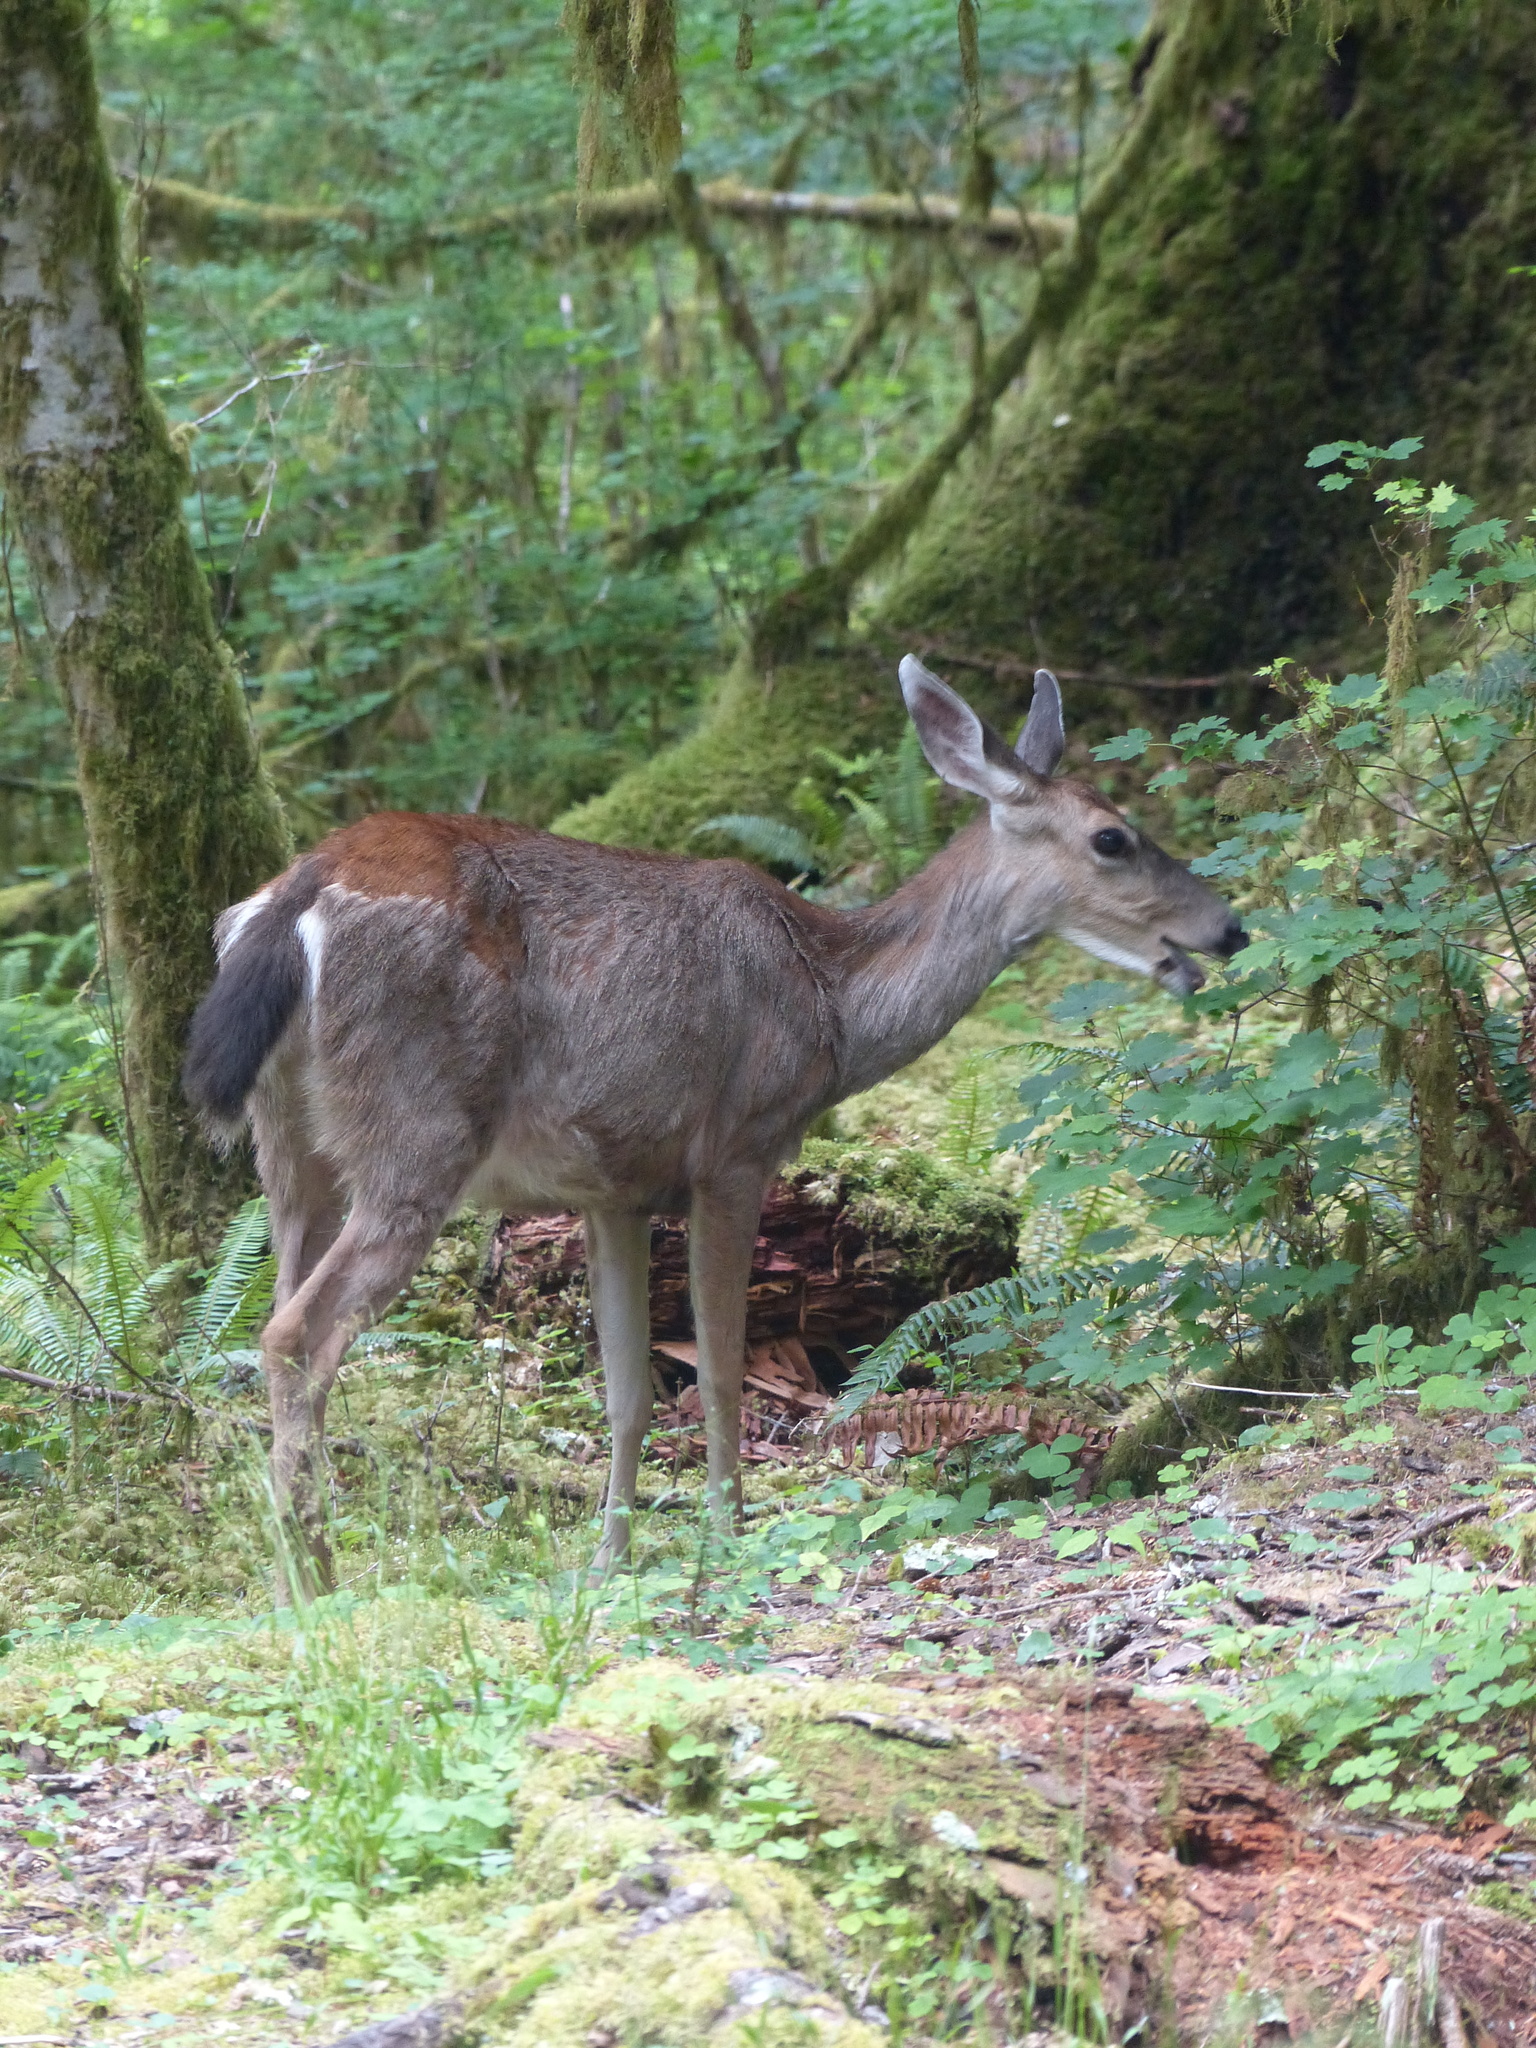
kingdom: Animalia
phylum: Chordata
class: Mammalia
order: Artiodactyla
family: Cervidae
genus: Odocoileus
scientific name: Odocoileus hemionus
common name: Mule deer
